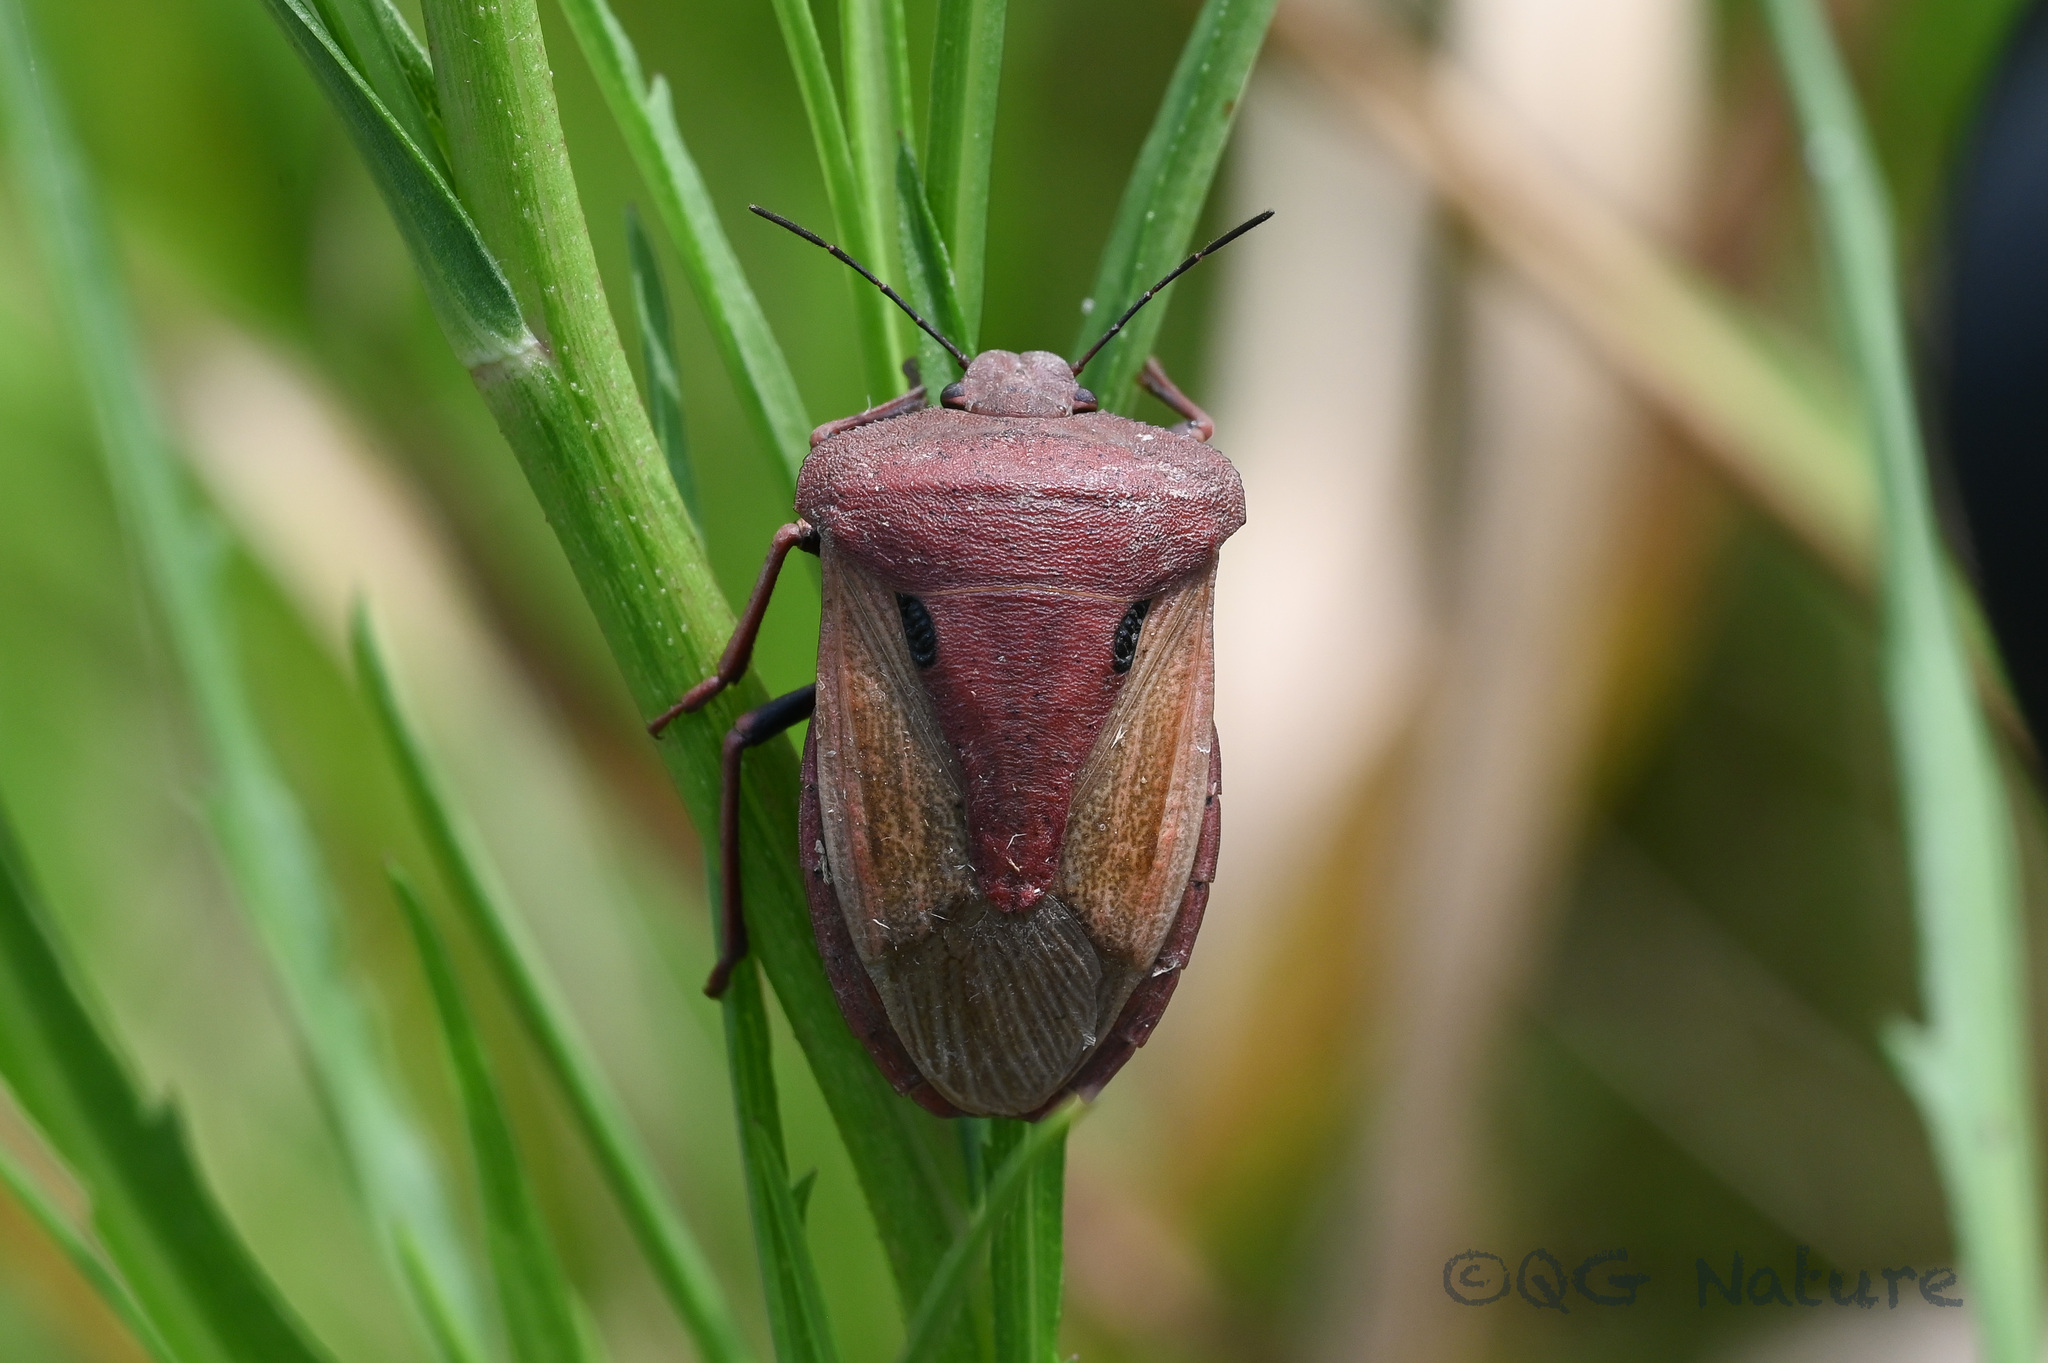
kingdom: Animalia
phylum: Arthropoda
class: Insecta
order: Hemiptera
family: Pentatomidae
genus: Chalcopis
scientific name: Chalcopis glandulosa
